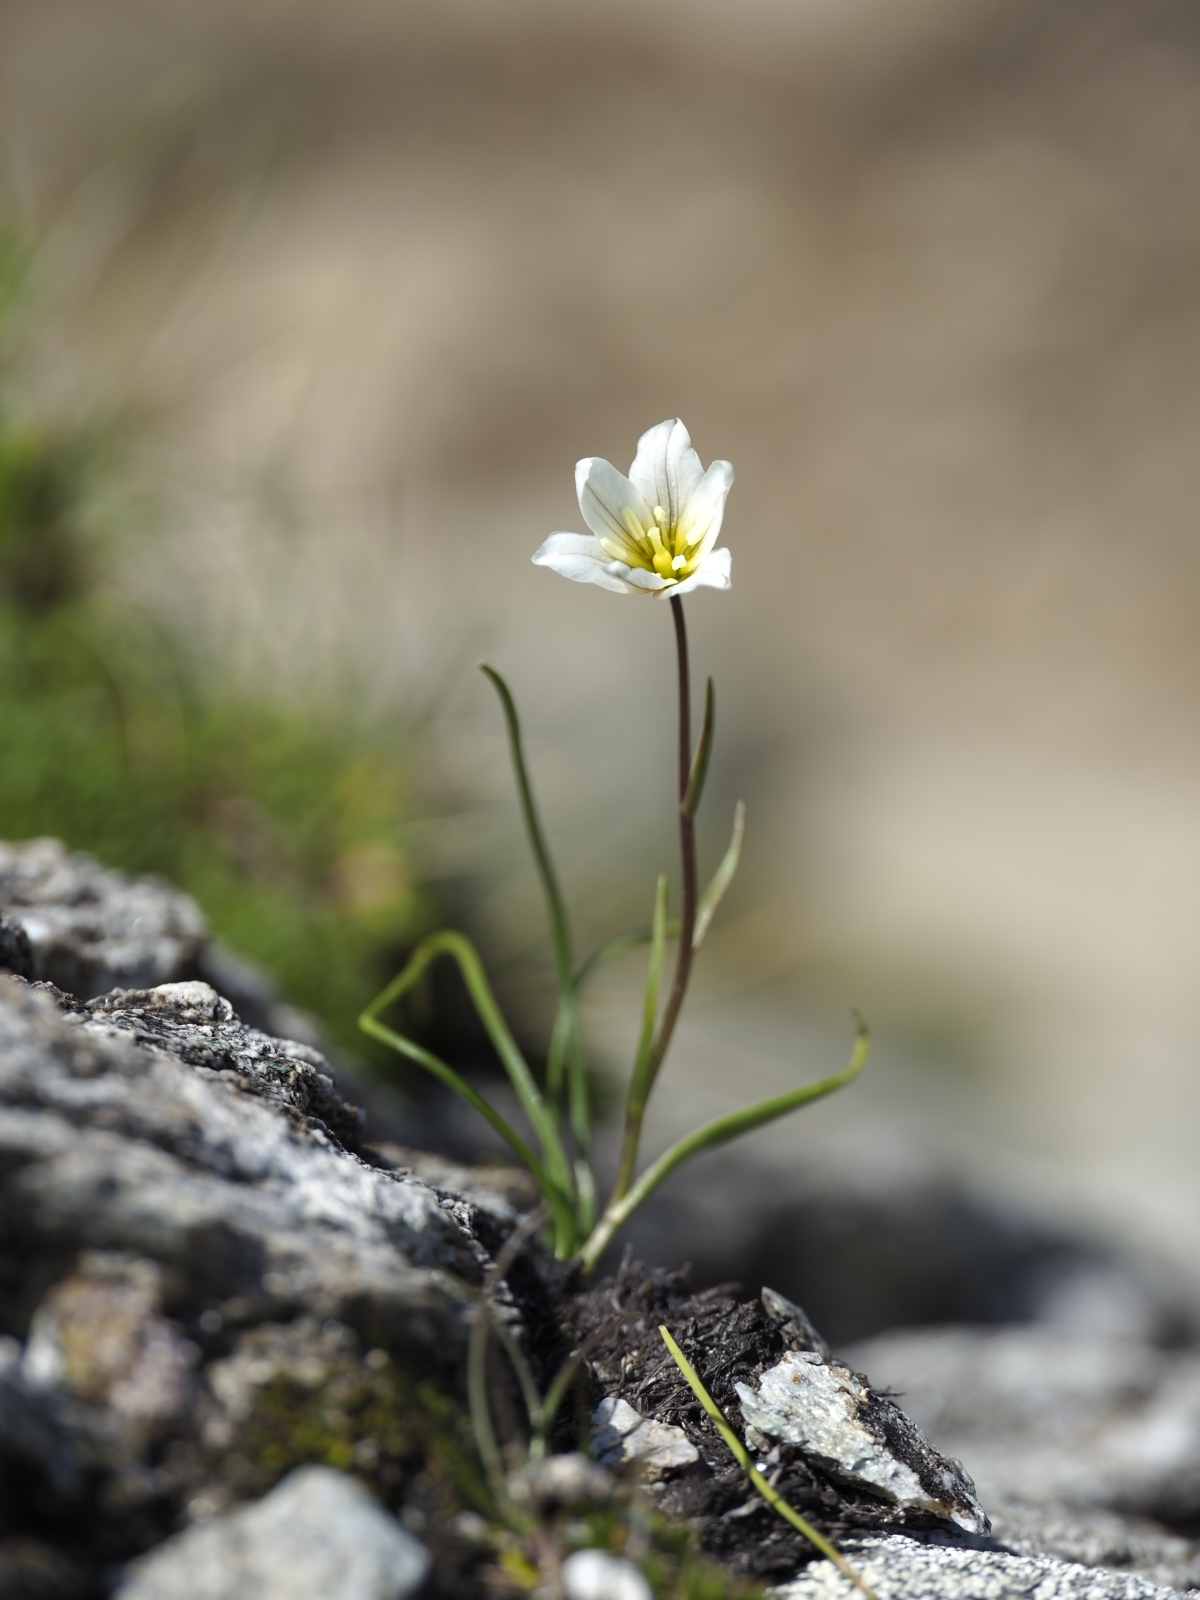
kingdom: Plantae
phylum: Tracheophyta
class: Liliopsida
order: Liliales
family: Liliaceae
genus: Gagea
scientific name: Gagea serotina
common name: Snowdon lily
